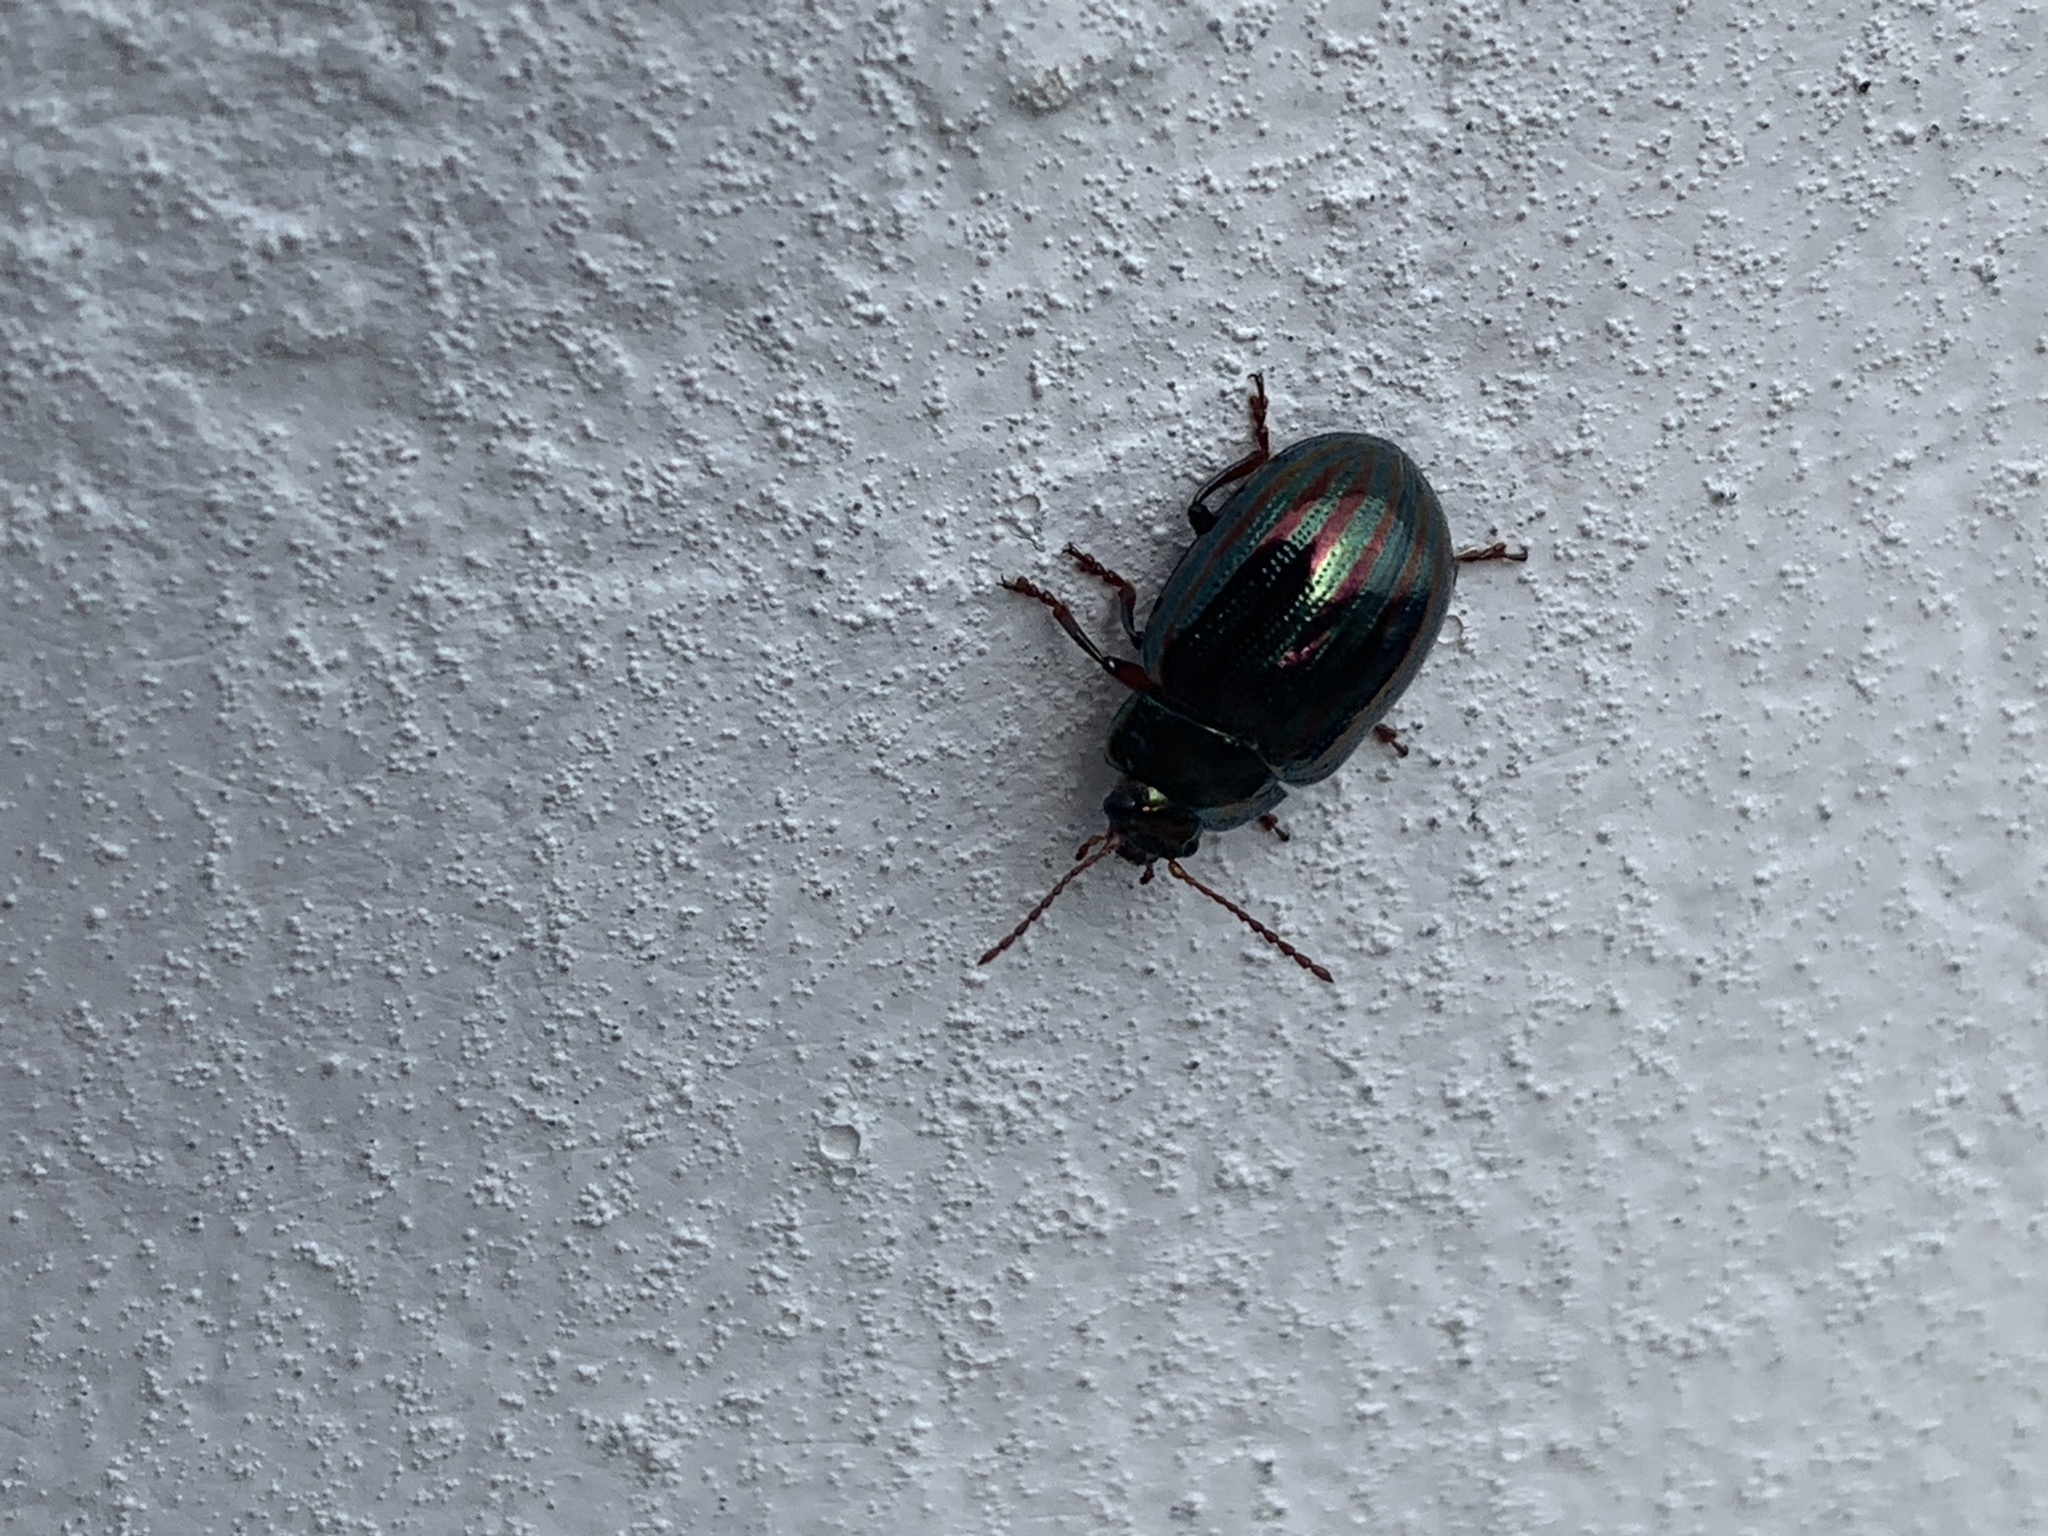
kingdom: Animalia
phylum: Arthropoda
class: Insecta
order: Coleoptera
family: Chrysomelidae
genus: Chrysolina
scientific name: Chrysolina americana
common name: Rosemary beetle
